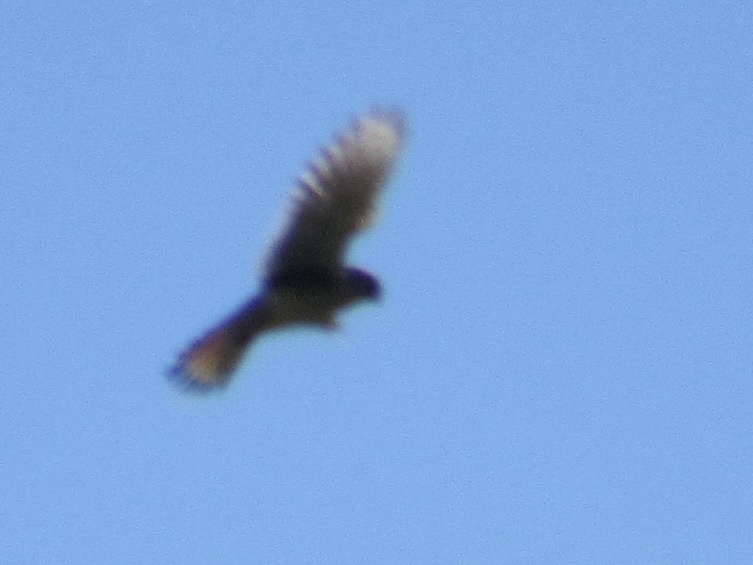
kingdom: Animalia
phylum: Chordata
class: Aves
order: Falconiformes
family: Falconidae
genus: Falco
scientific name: Falco sparverius
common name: American kestrel
